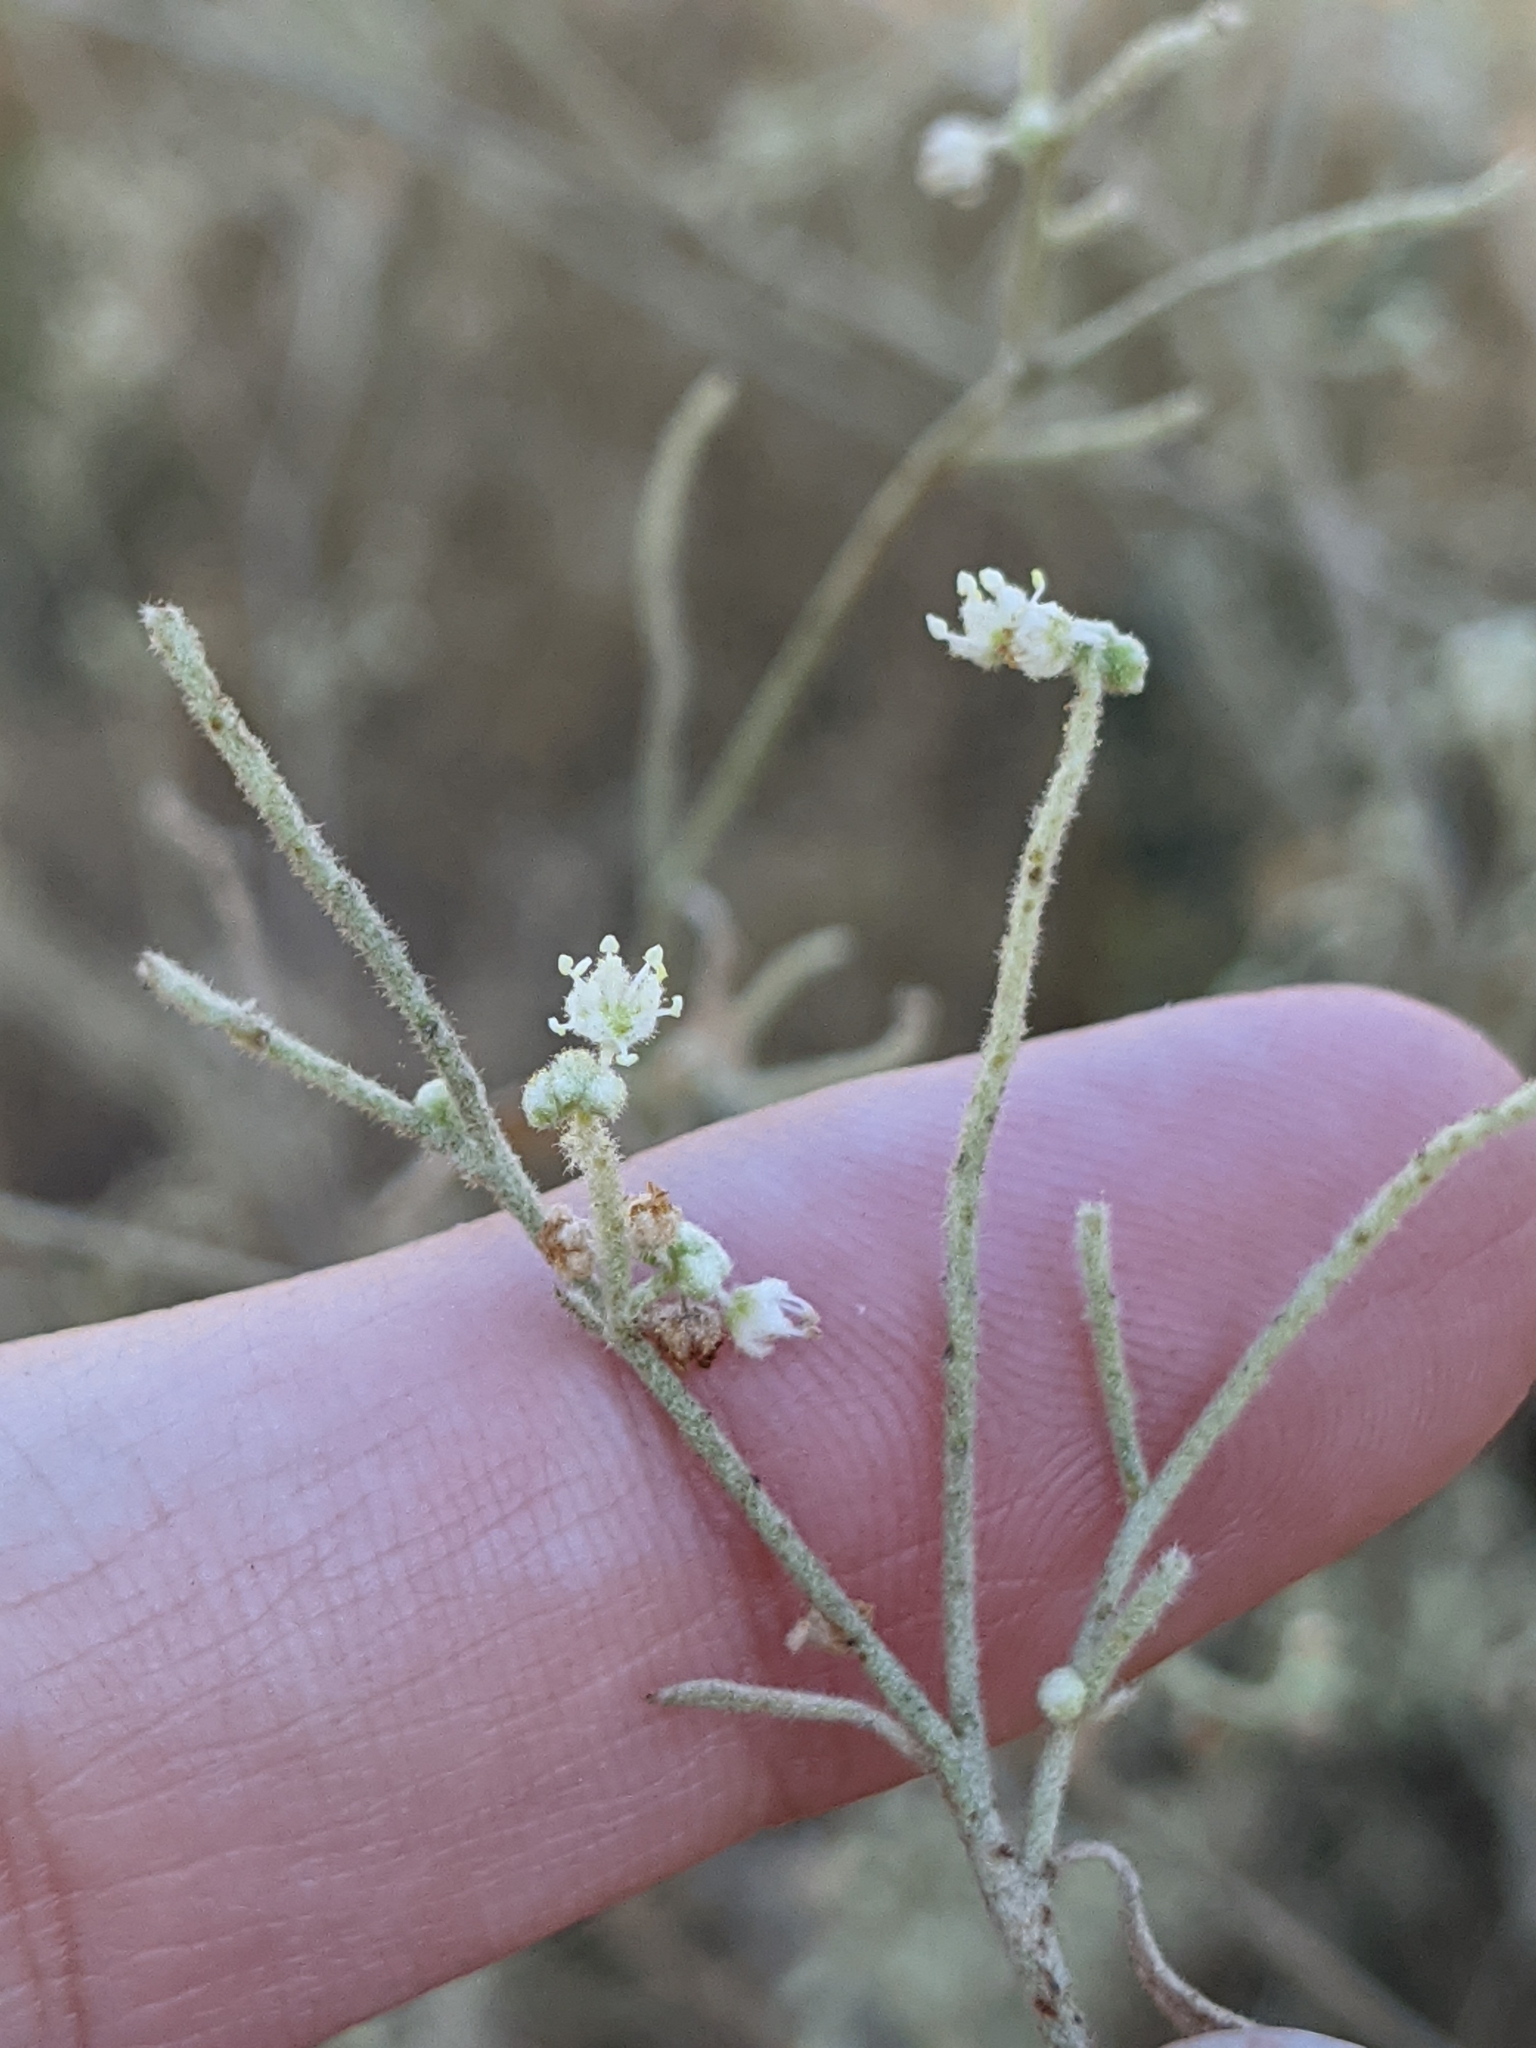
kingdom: Plantae
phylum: Tracheophyta
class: Magnoliopsida
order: Malpighiales
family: Euphorbiaceae
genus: Croton
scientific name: Croton texensis
